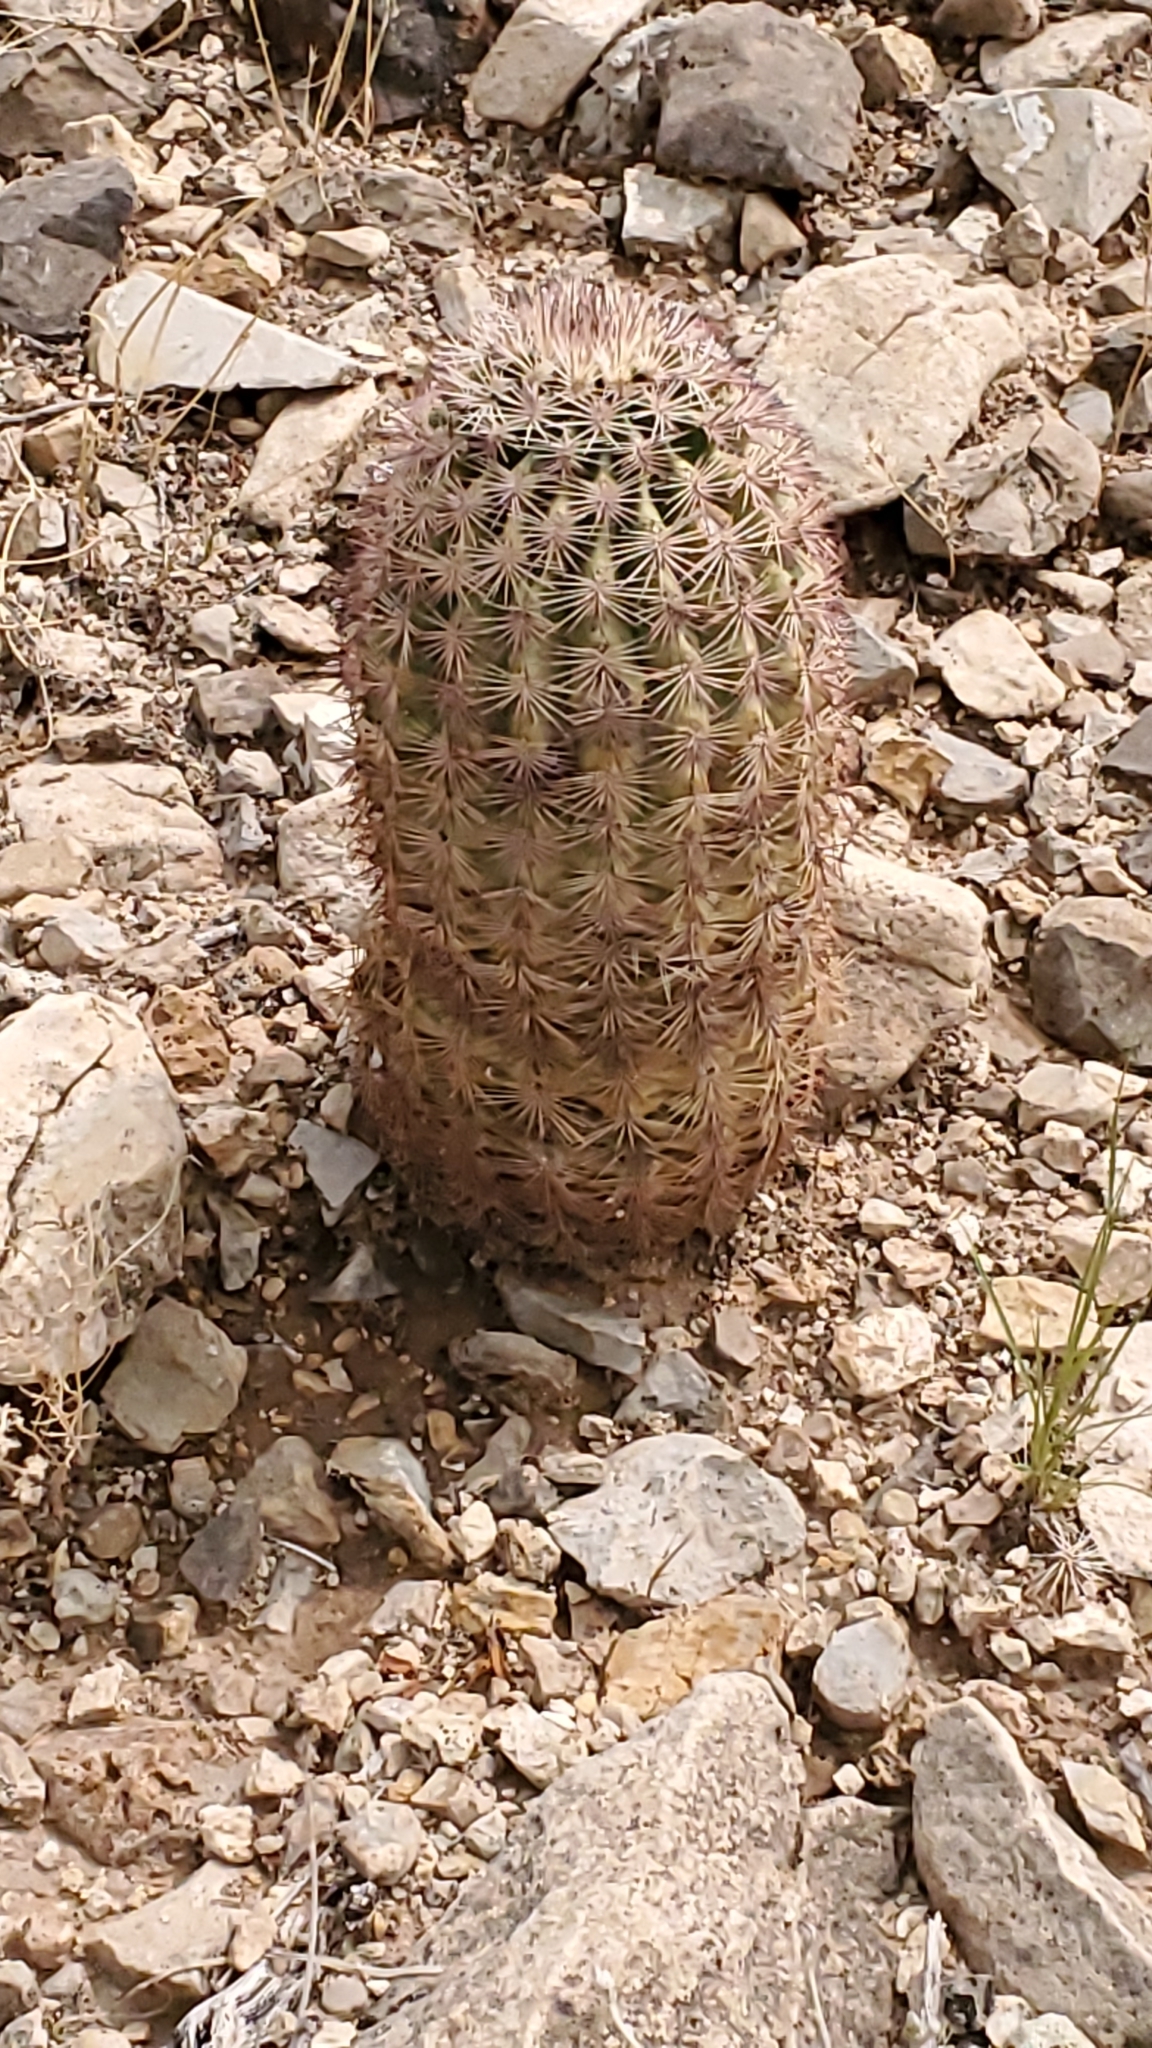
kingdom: Plantae
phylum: Tracheophyta
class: Magnoliopsida
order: Caryophyllales
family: Cactaceae
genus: Echinocereus
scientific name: Echinocereus dasyacanthus
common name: Spiny hedgehog cactus
